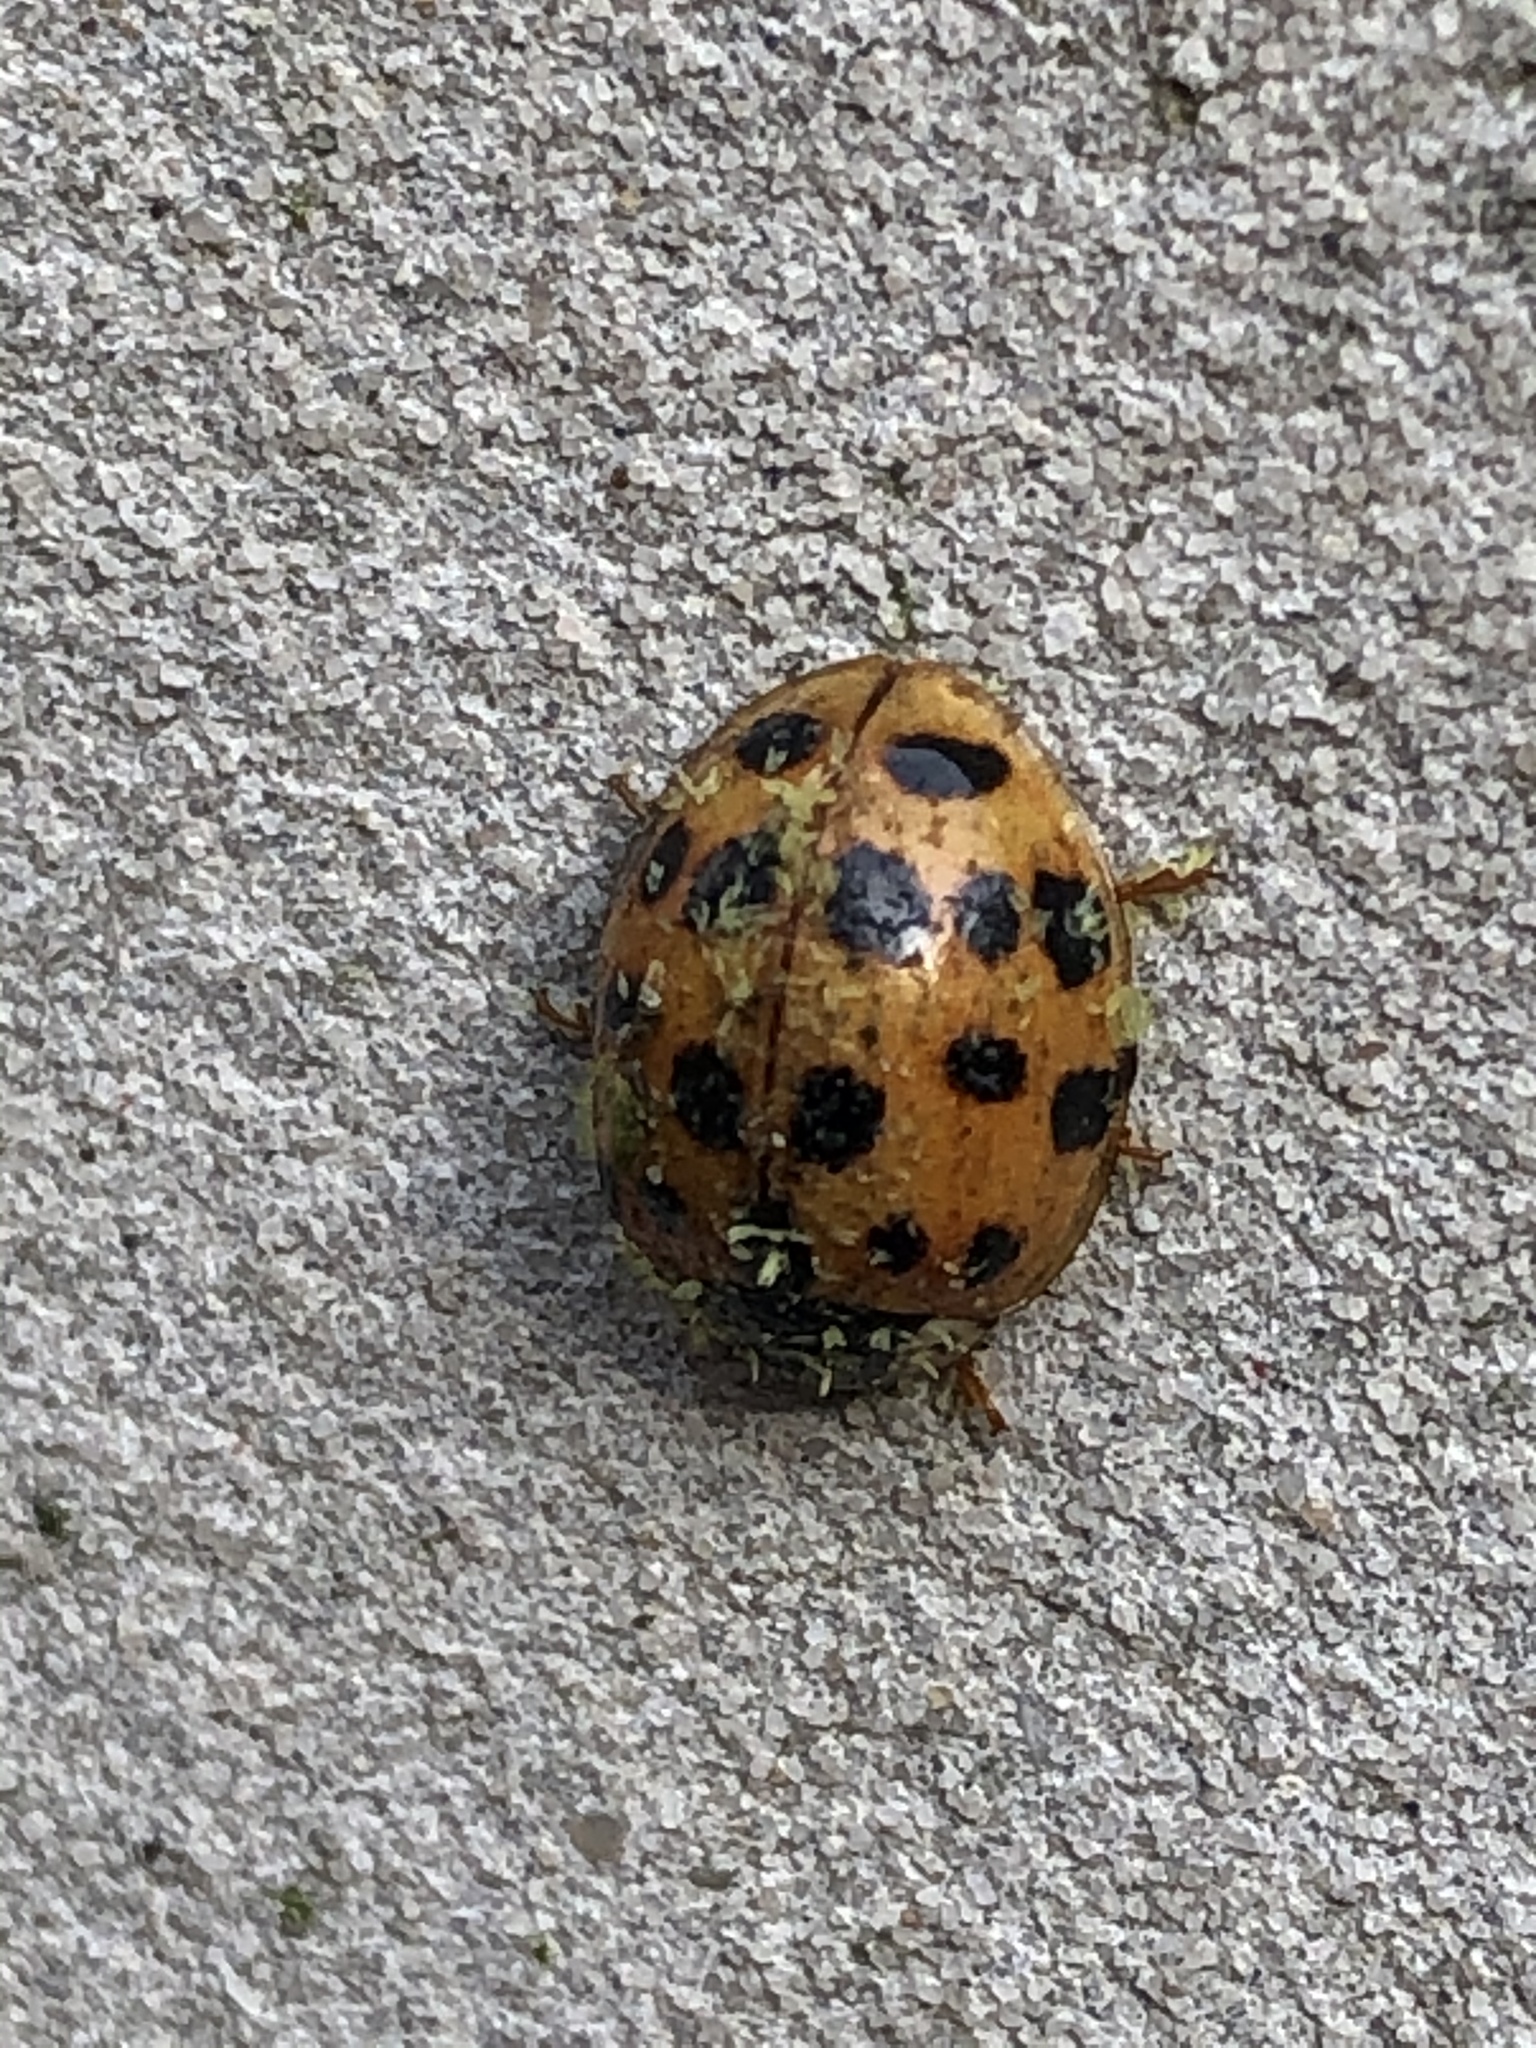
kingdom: Animalia
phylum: Arthropoda
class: Insecta
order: Coleoptera
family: Coccinellidae
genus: Harmonia
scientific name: Harmonia axyridis
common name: Harlequin ladybird
